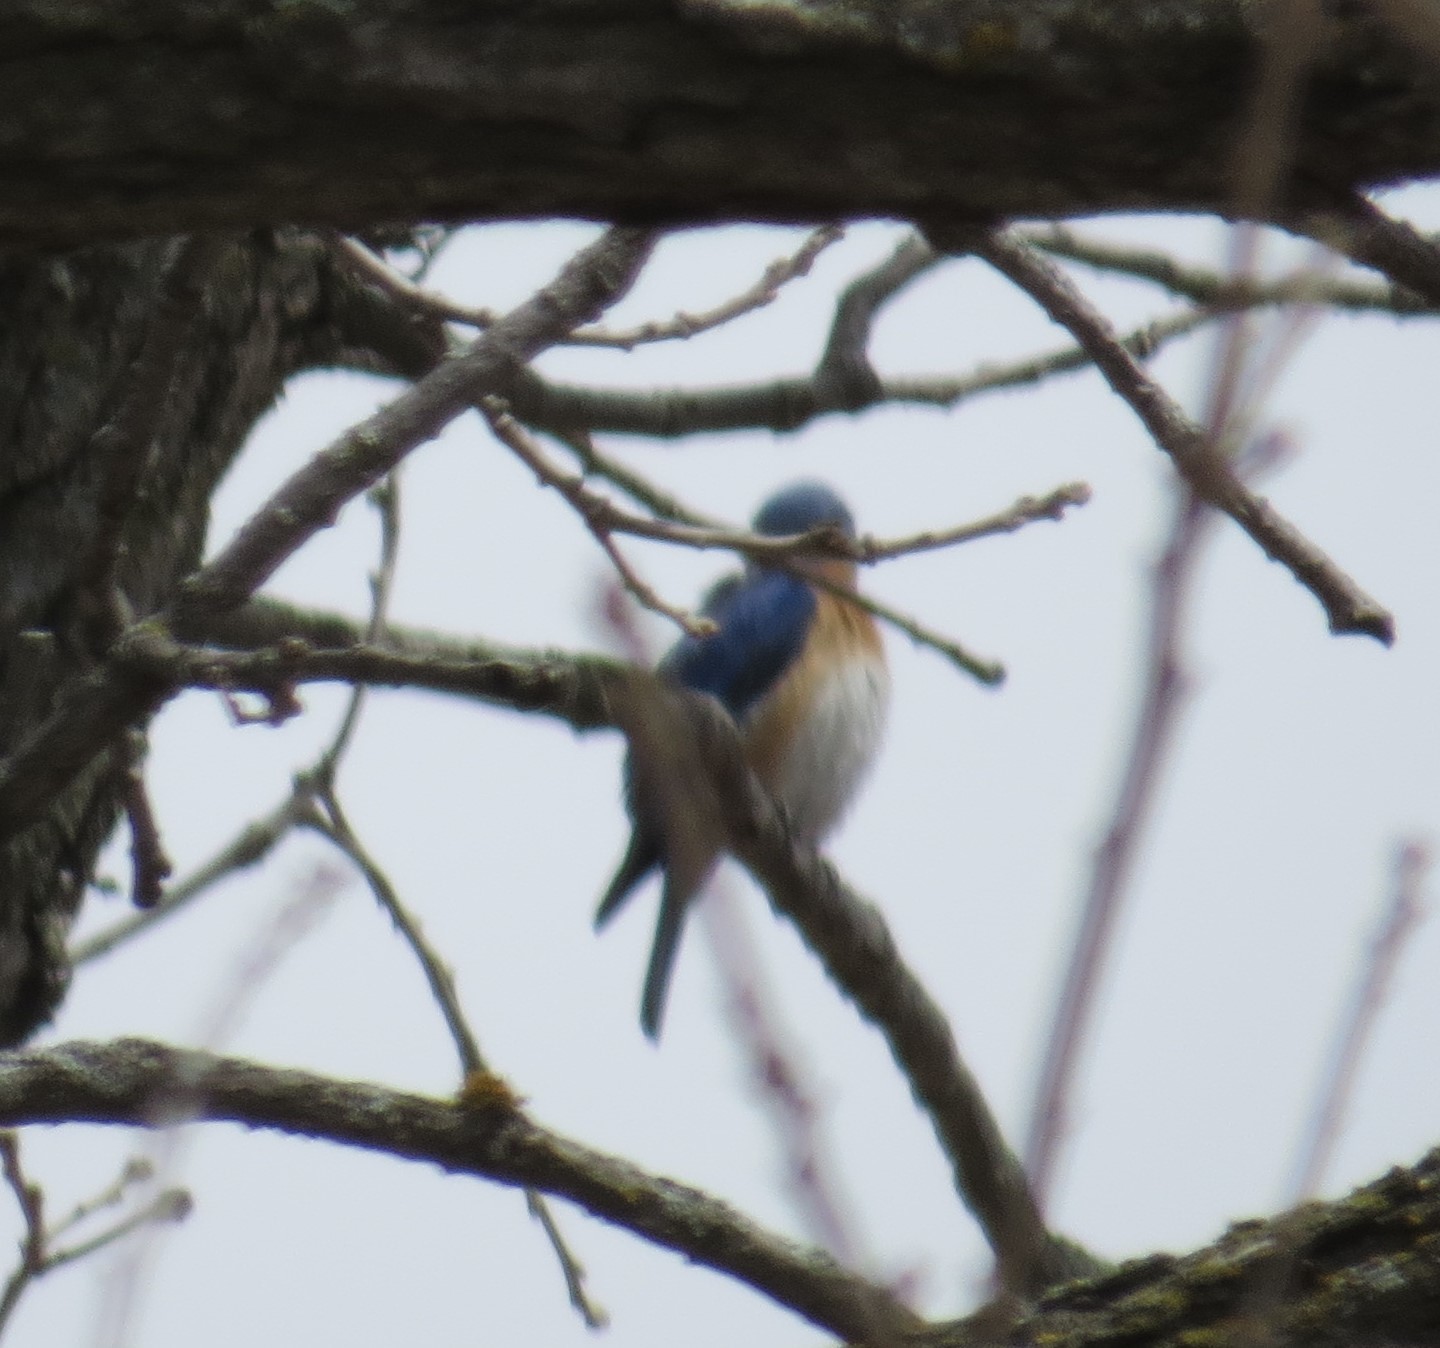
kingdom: Animalia
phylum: Chordata
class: Aves
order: Passeriformes
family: Turdidae
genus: Sialia
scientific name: Sialia sialis
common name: Eastern bluebird
